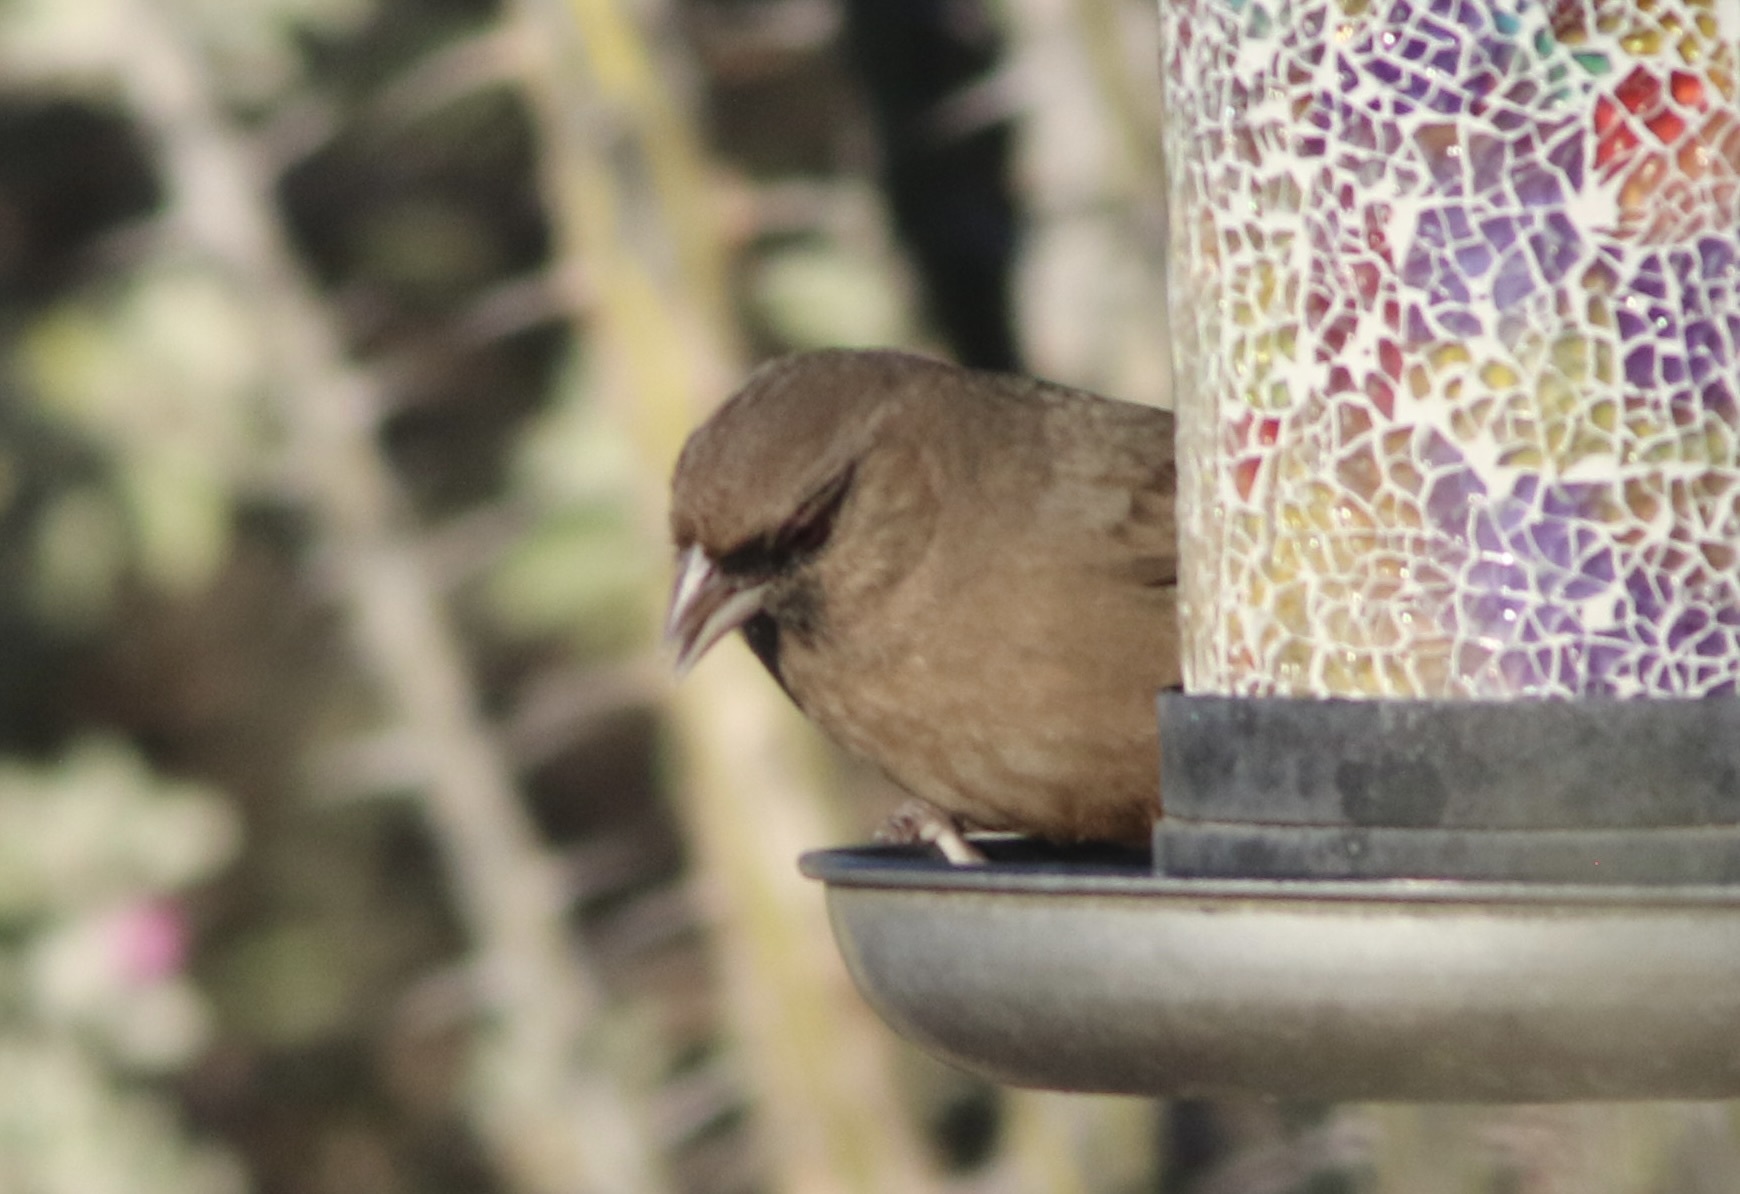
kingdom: Animalia
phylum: Chordata
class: Aves
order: Passeriformes
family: Passerellidae
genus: Melozone
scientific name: Melozone aberti
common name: Abert's towhee
